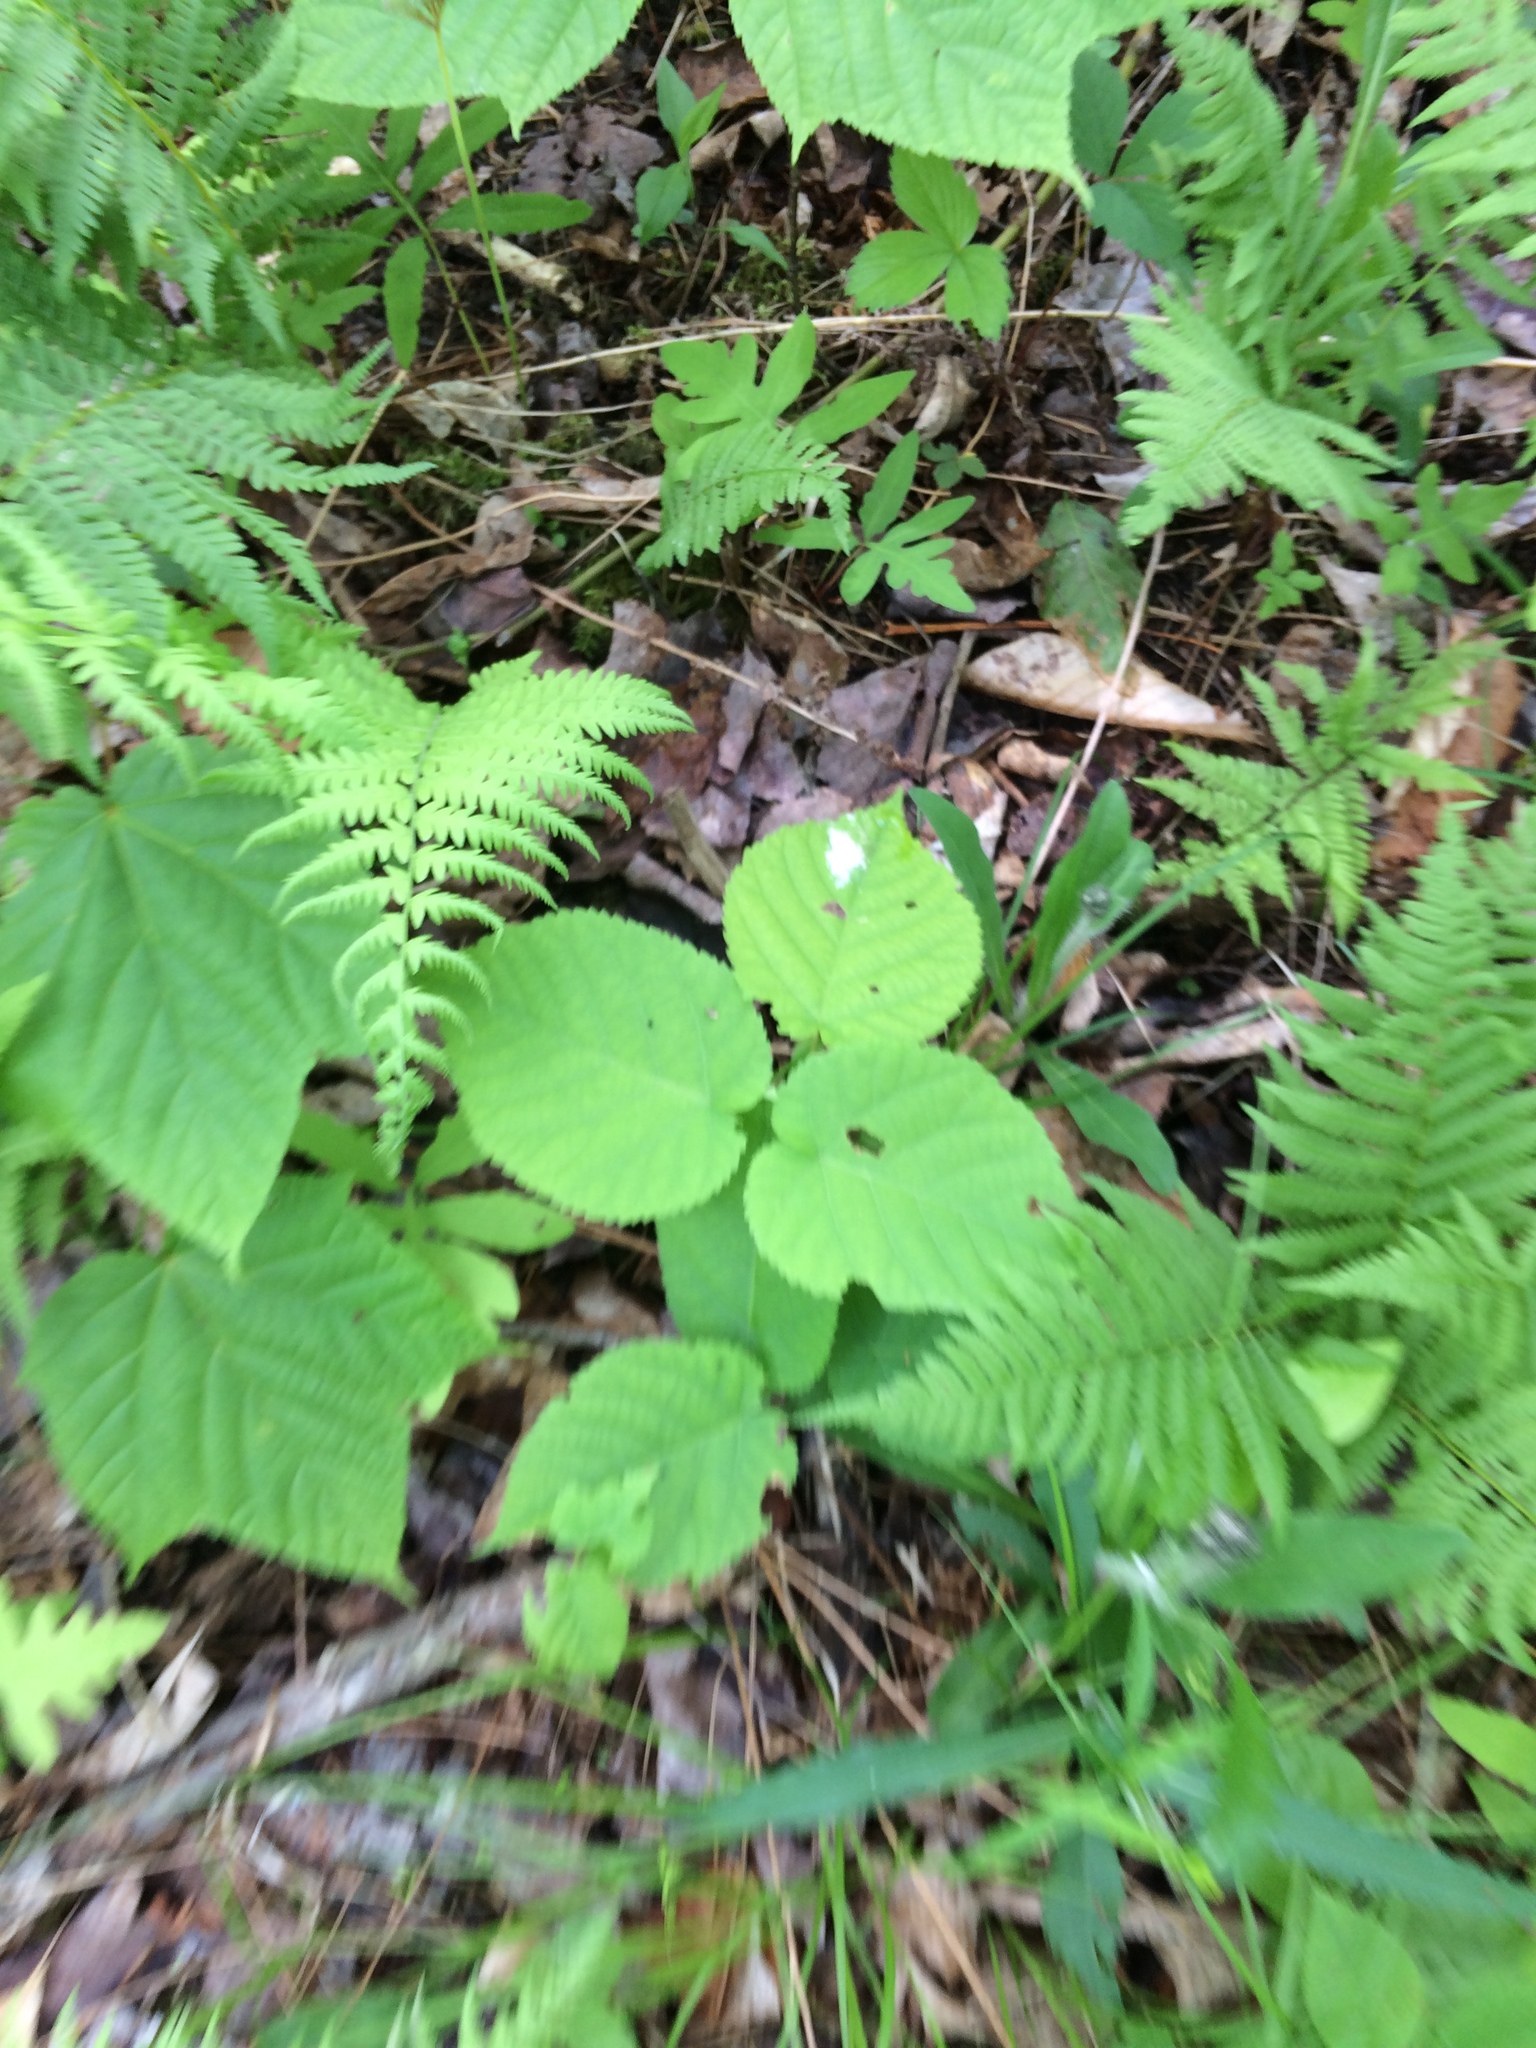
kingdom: Plantae
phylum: Tracheophyta
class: Magnoliopsida
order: Malvales
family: Malvaceae
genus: Tilia
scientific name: Tilia americana
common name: Basswood
